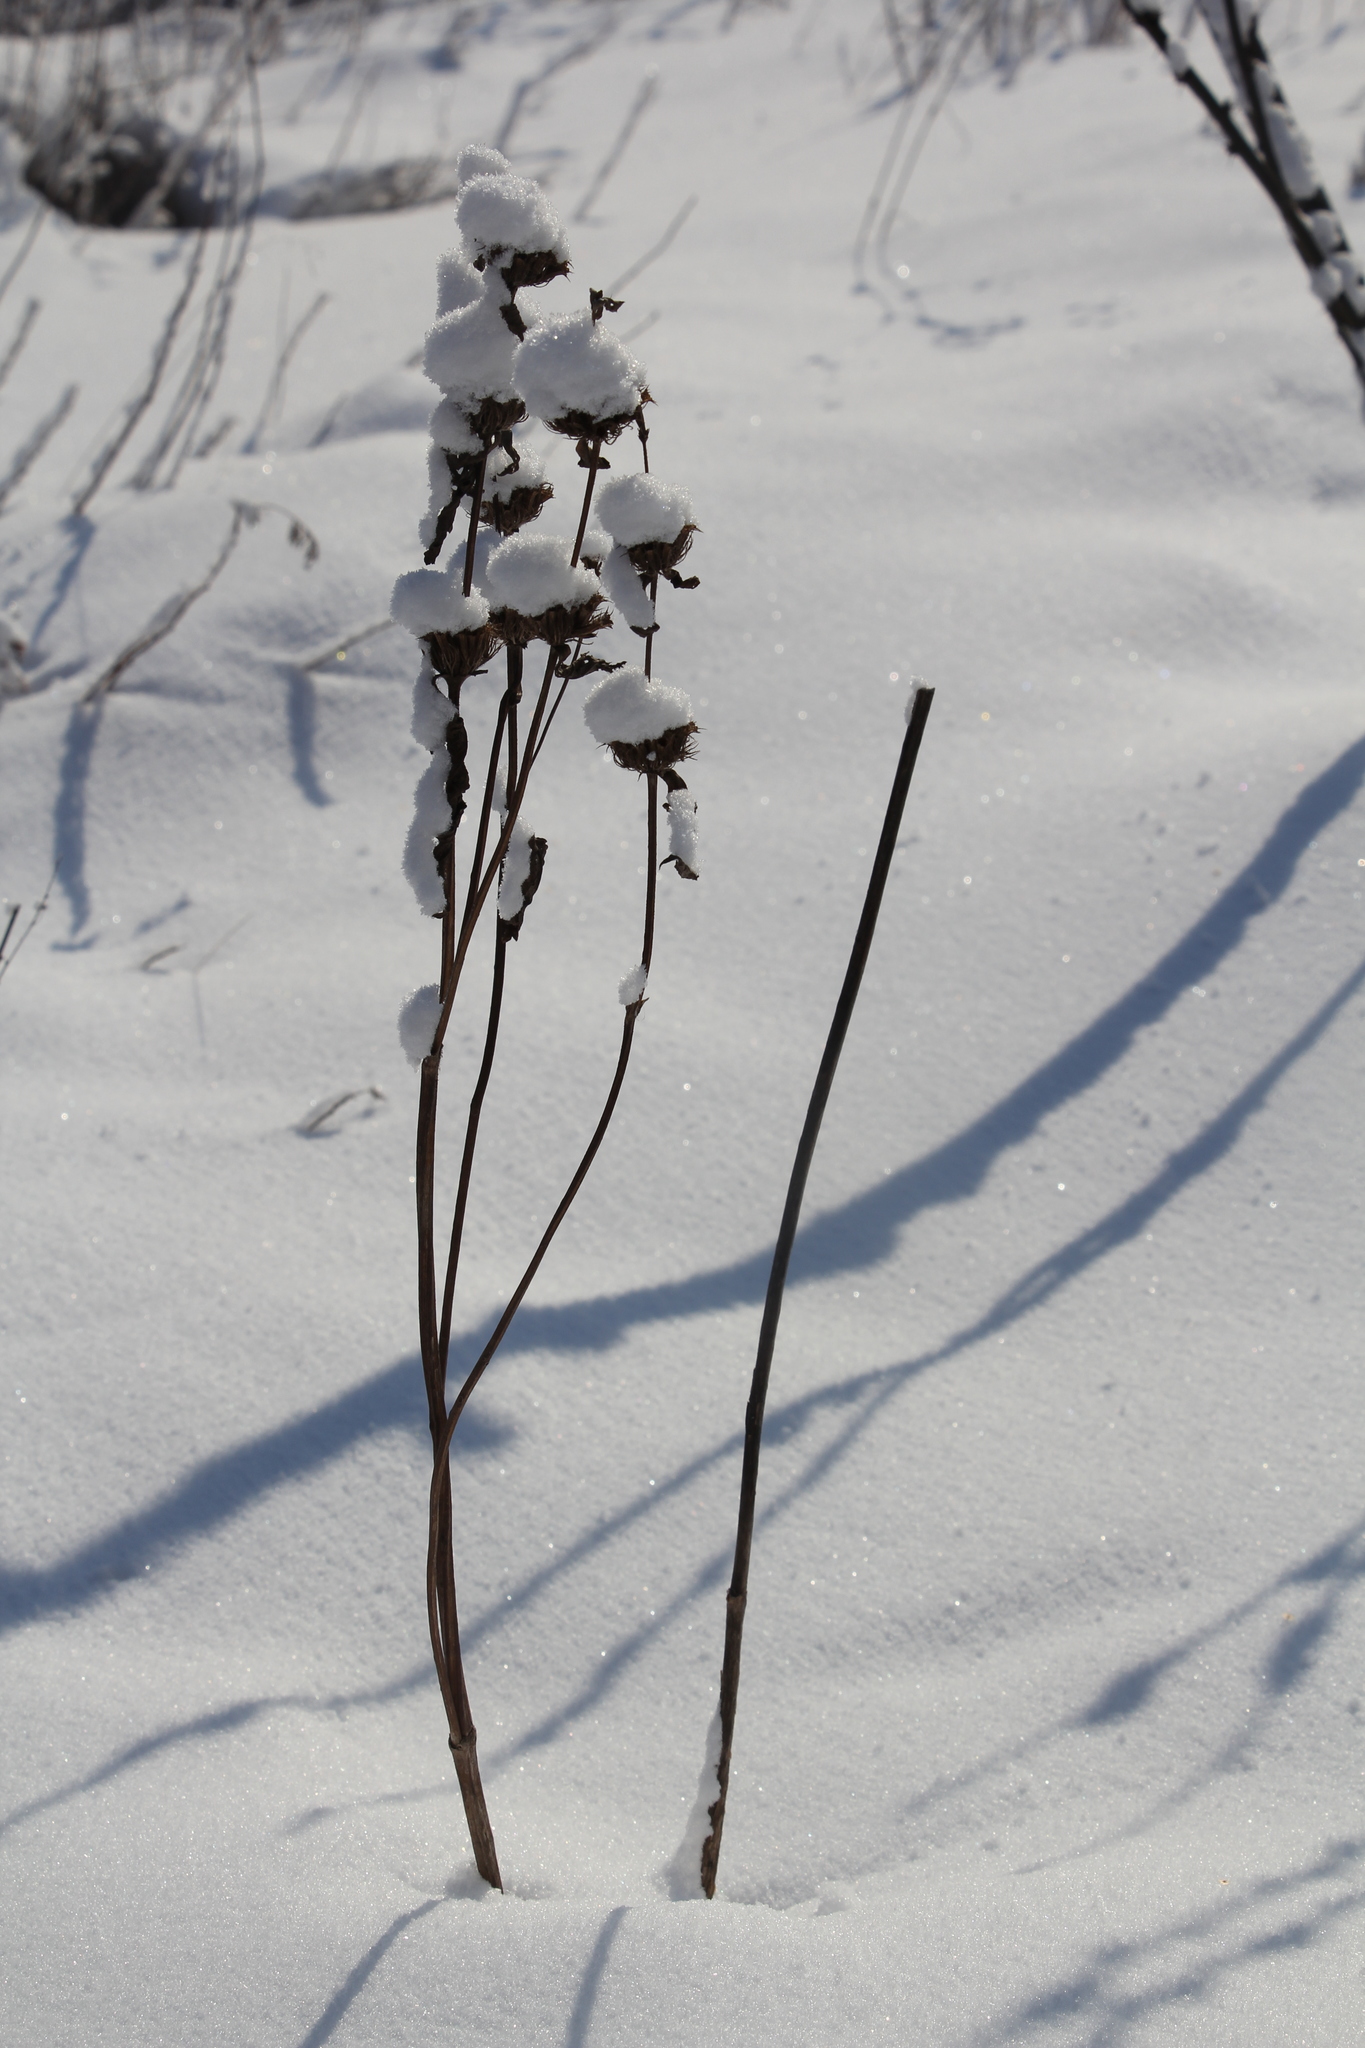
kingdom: Plantae
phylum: Tracheophyta
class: Magnoliopsida
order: Lamiales
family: Lamiaceae
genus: Phlomoides
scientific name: Phlomoides tuberosa
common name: Tuberous jerusalem sage
